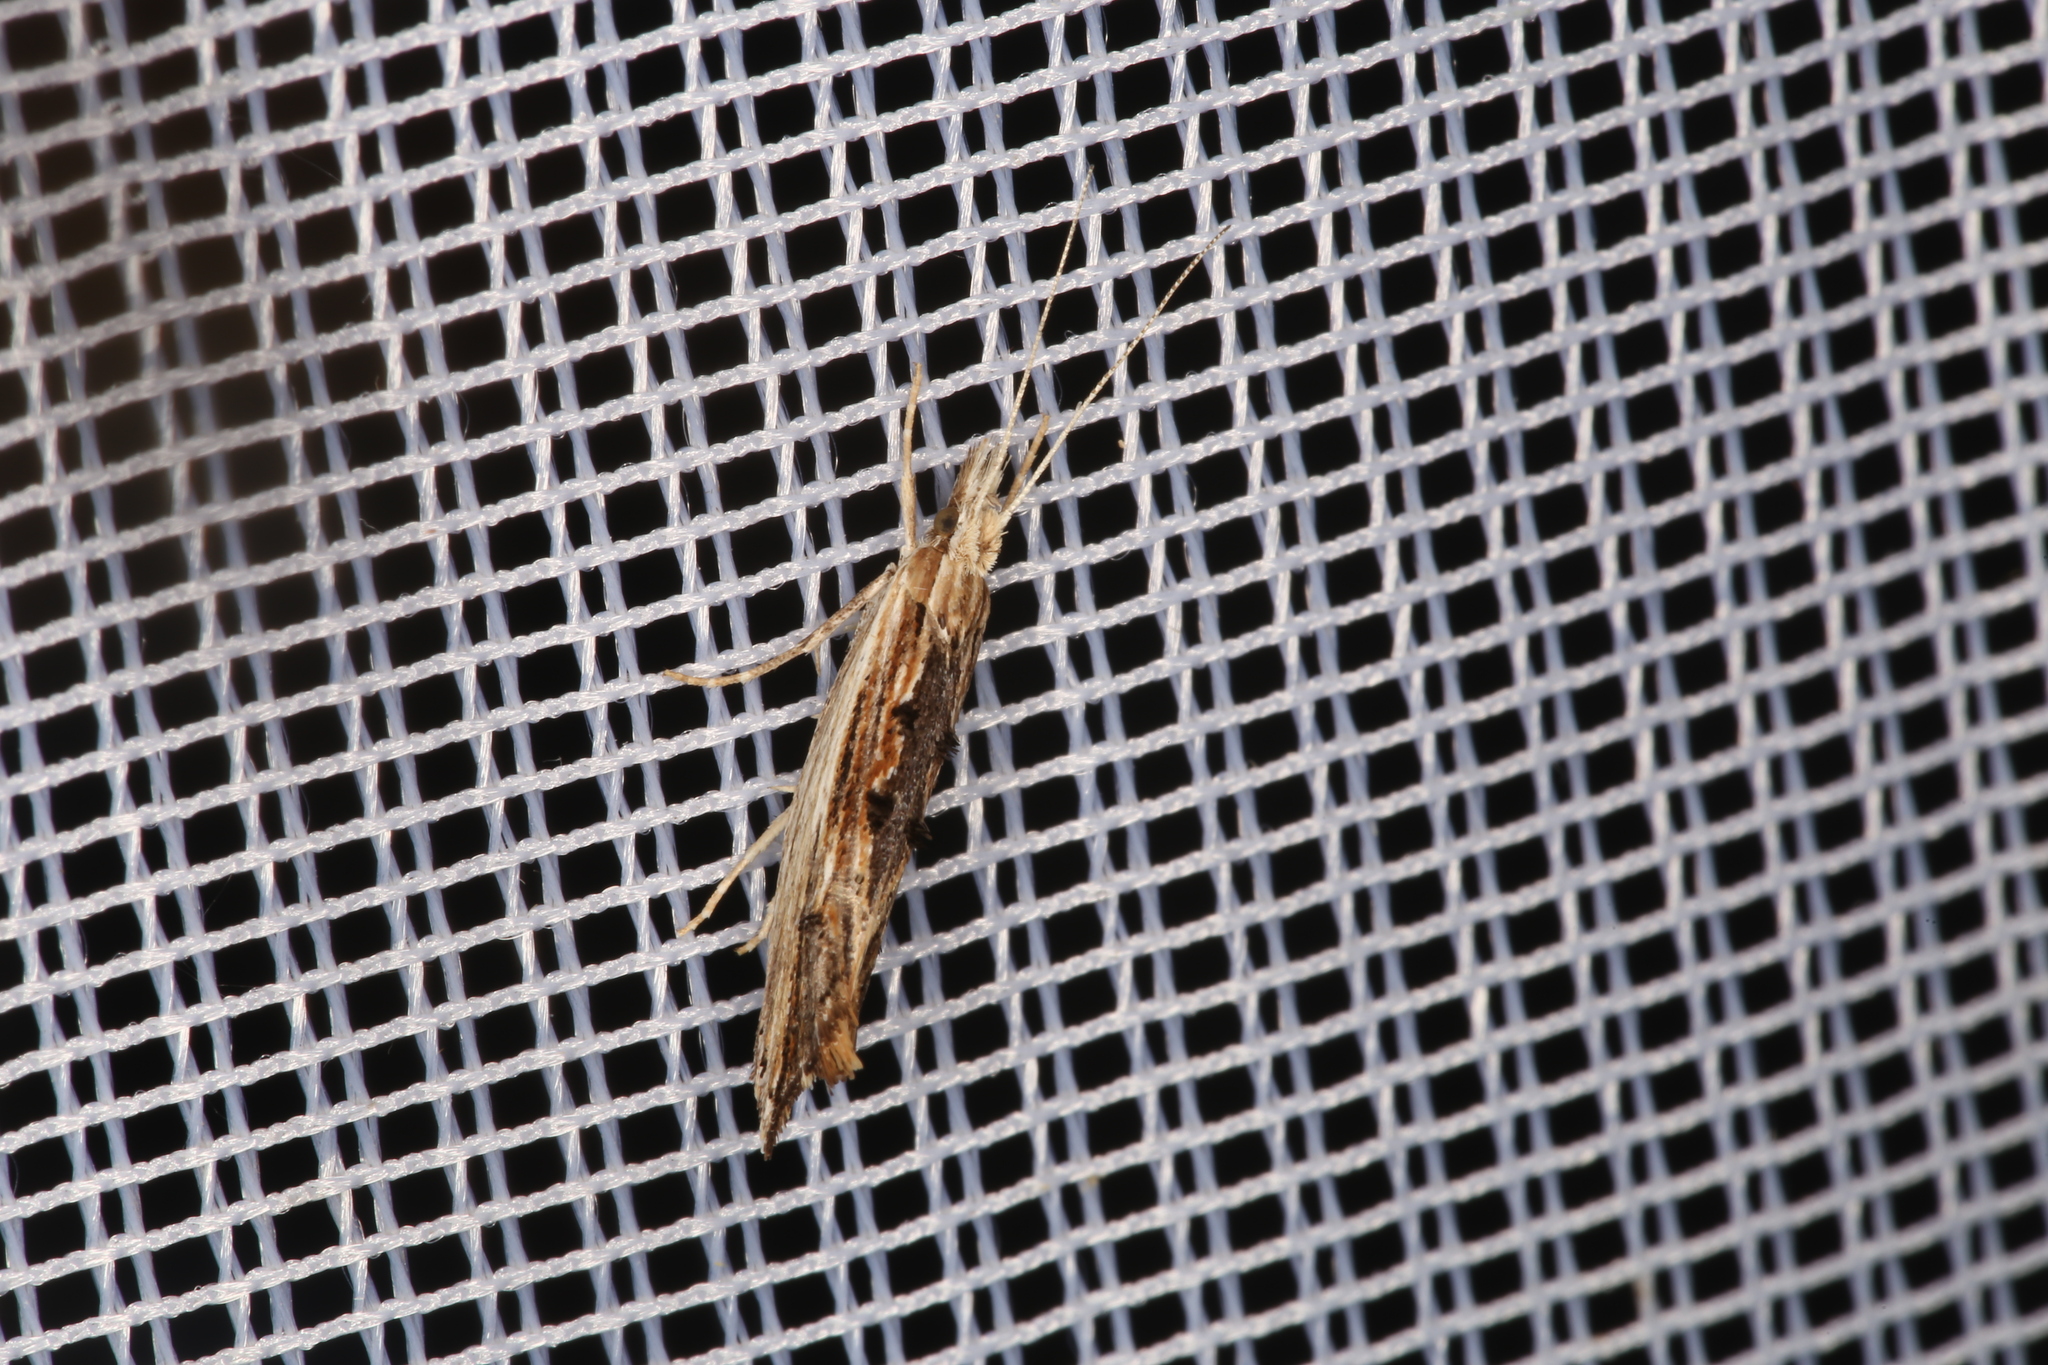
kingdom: Animalia
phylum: Arthropoda
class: Insecta
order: Lepidoptera
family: Ypsolophidae
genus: Ypsolopha
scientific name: Ypsolopha scabrella
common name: Wainscot smudge
